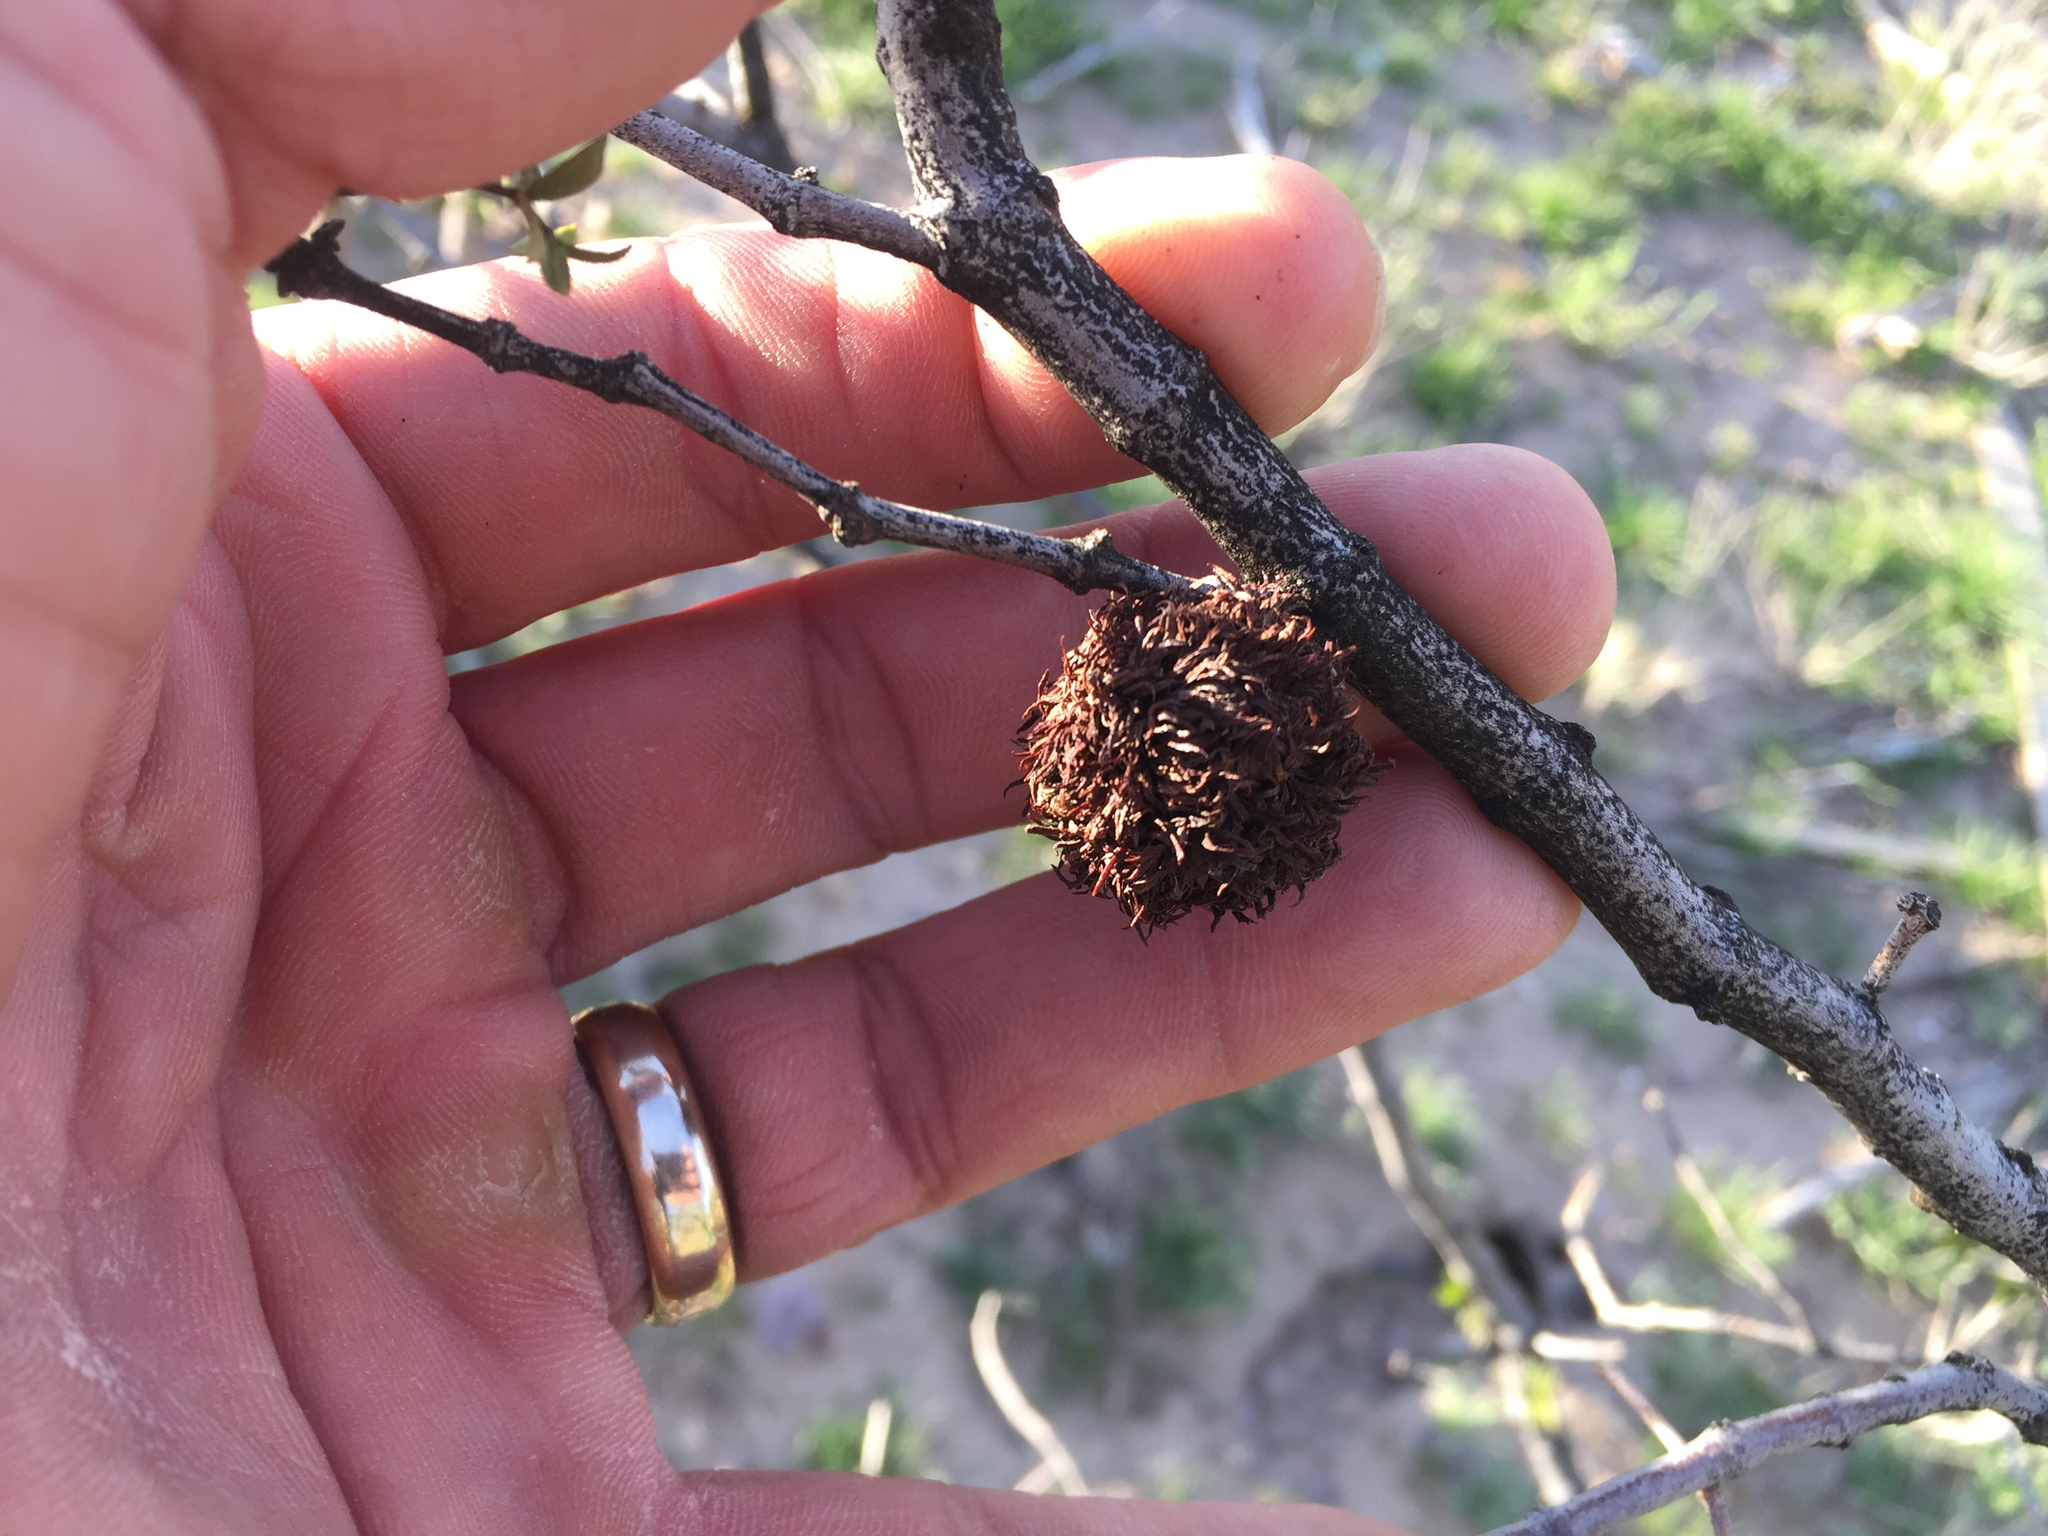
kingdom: Animalia
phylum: Arthropoda
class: Insecta
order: Diptera
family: Cecidomyiidae
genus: Asphondylia
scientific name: Asphondylia auripila
